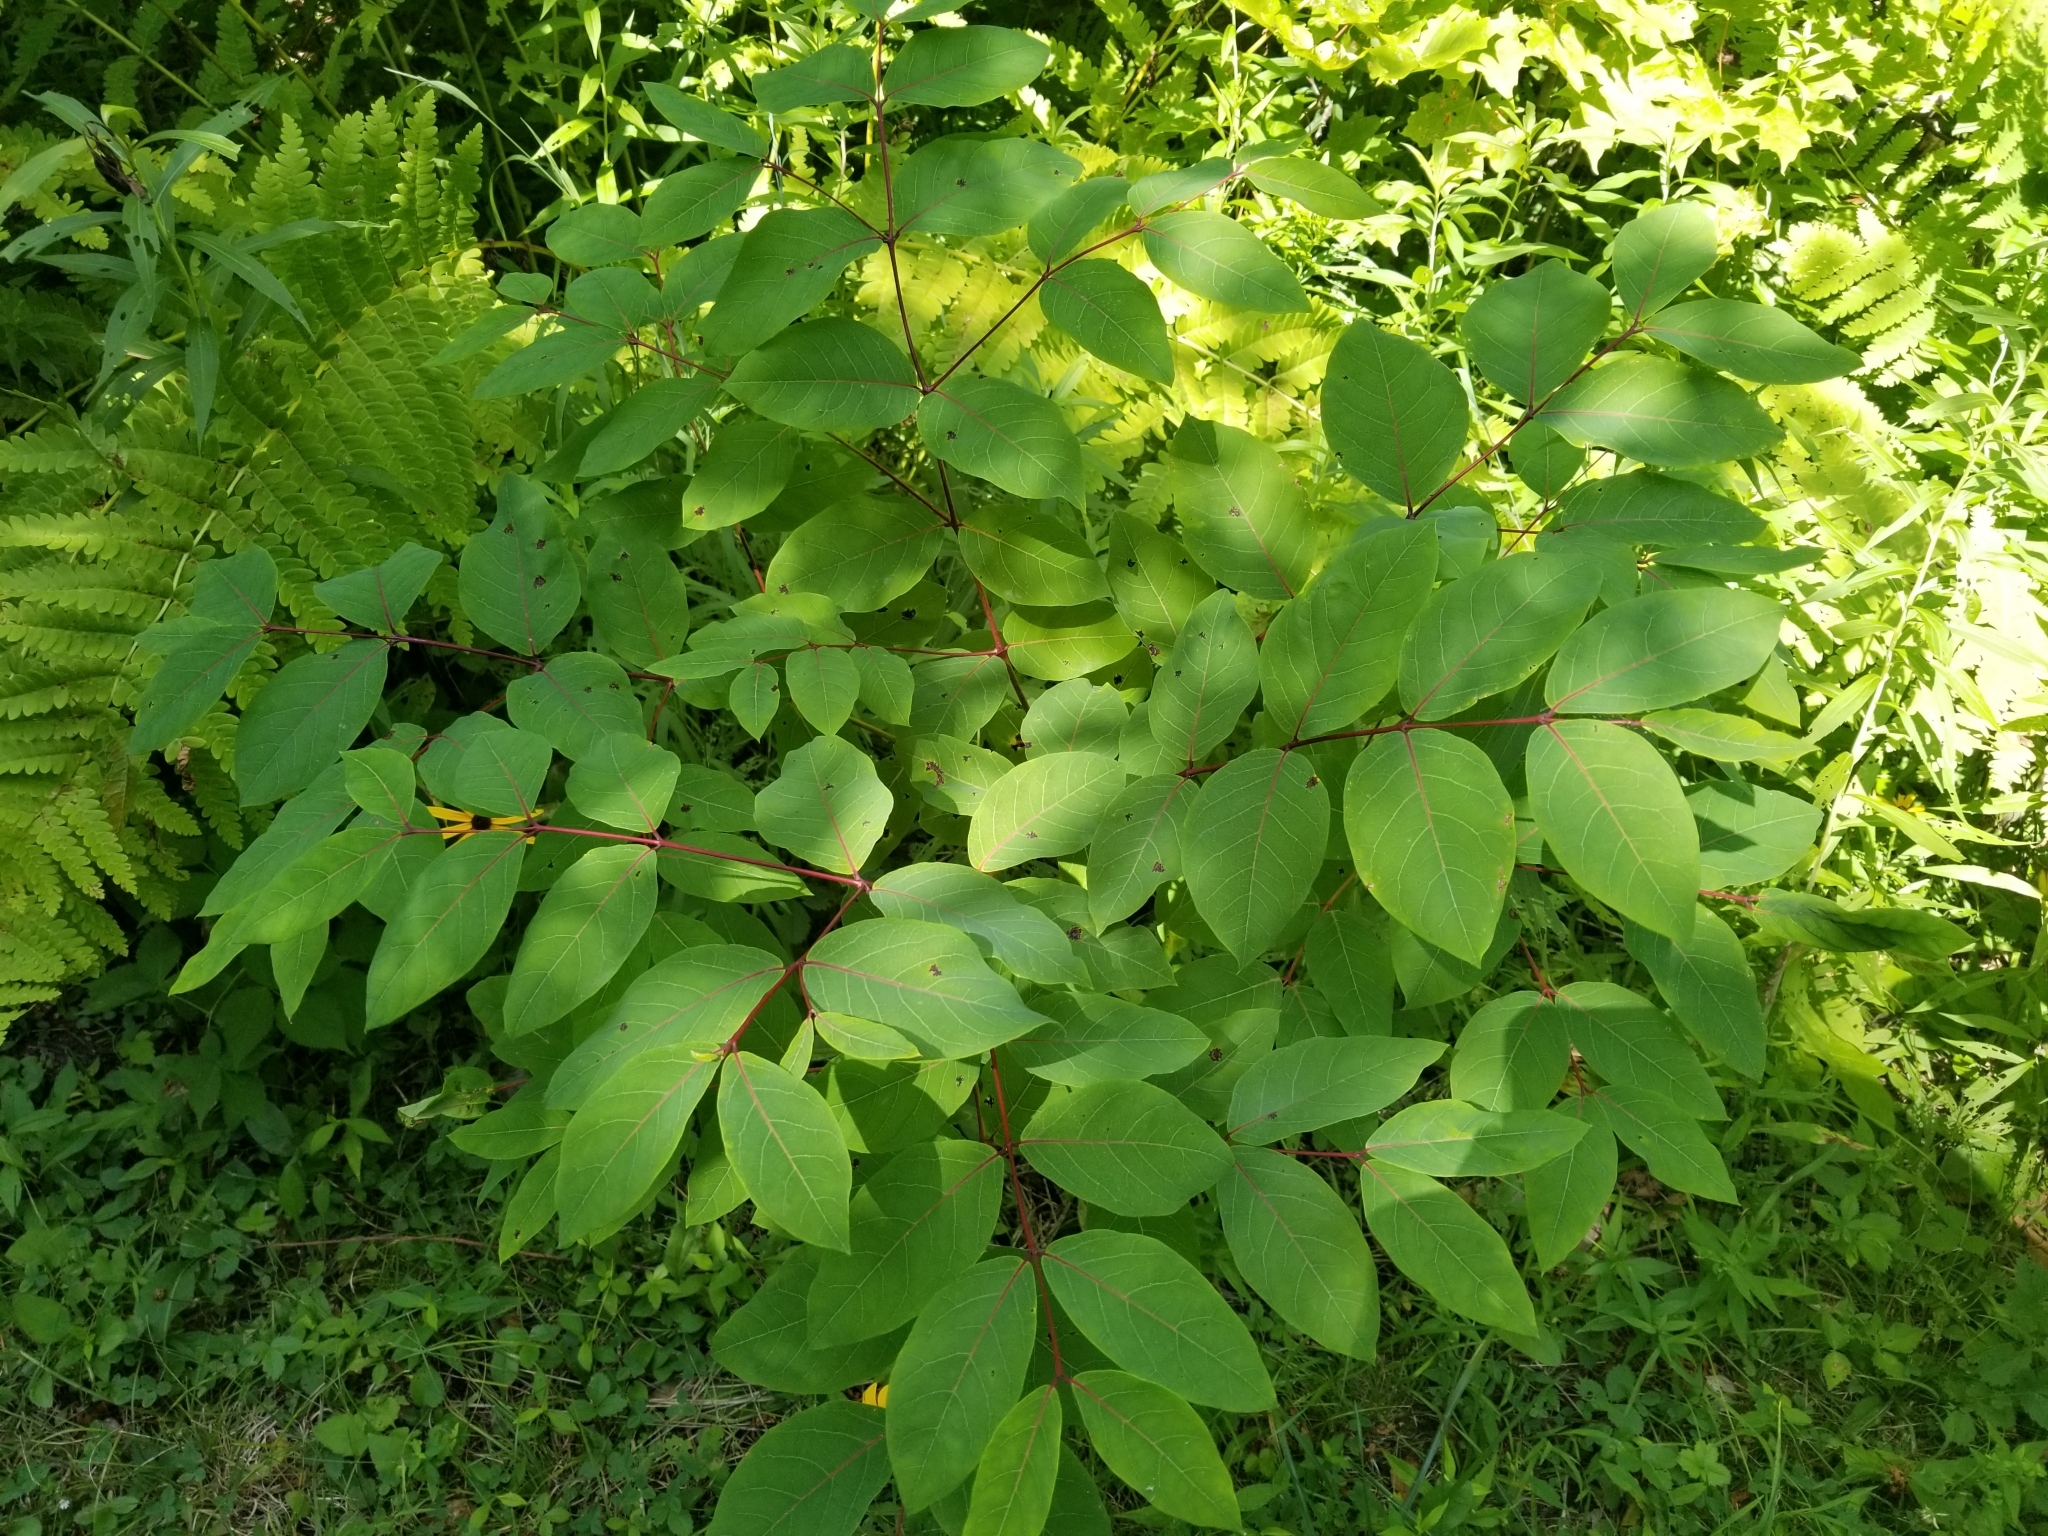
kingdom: Plantae
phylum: Tracheophyta
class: Magnoliopsida
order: Gentianales
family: Apocynaceae
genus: Apocynum
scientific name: Apocynum androsaemifolium
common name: Spreading dogbane
